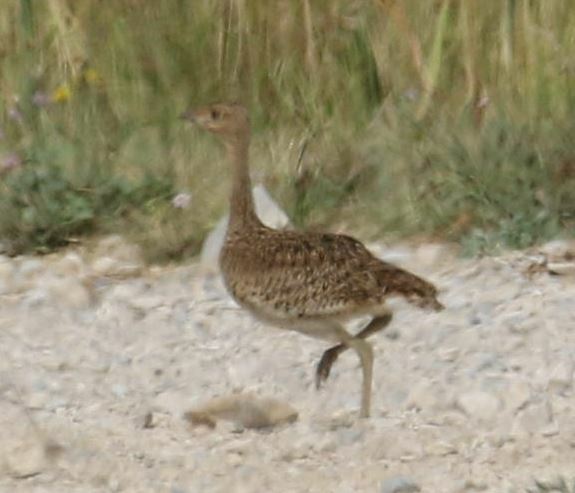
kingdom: Animalia
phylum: Chordata
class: Aves
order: Otidiformes
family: Otididae
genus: Tetrax
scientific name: Tetrax tetrax
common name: Little bustard
